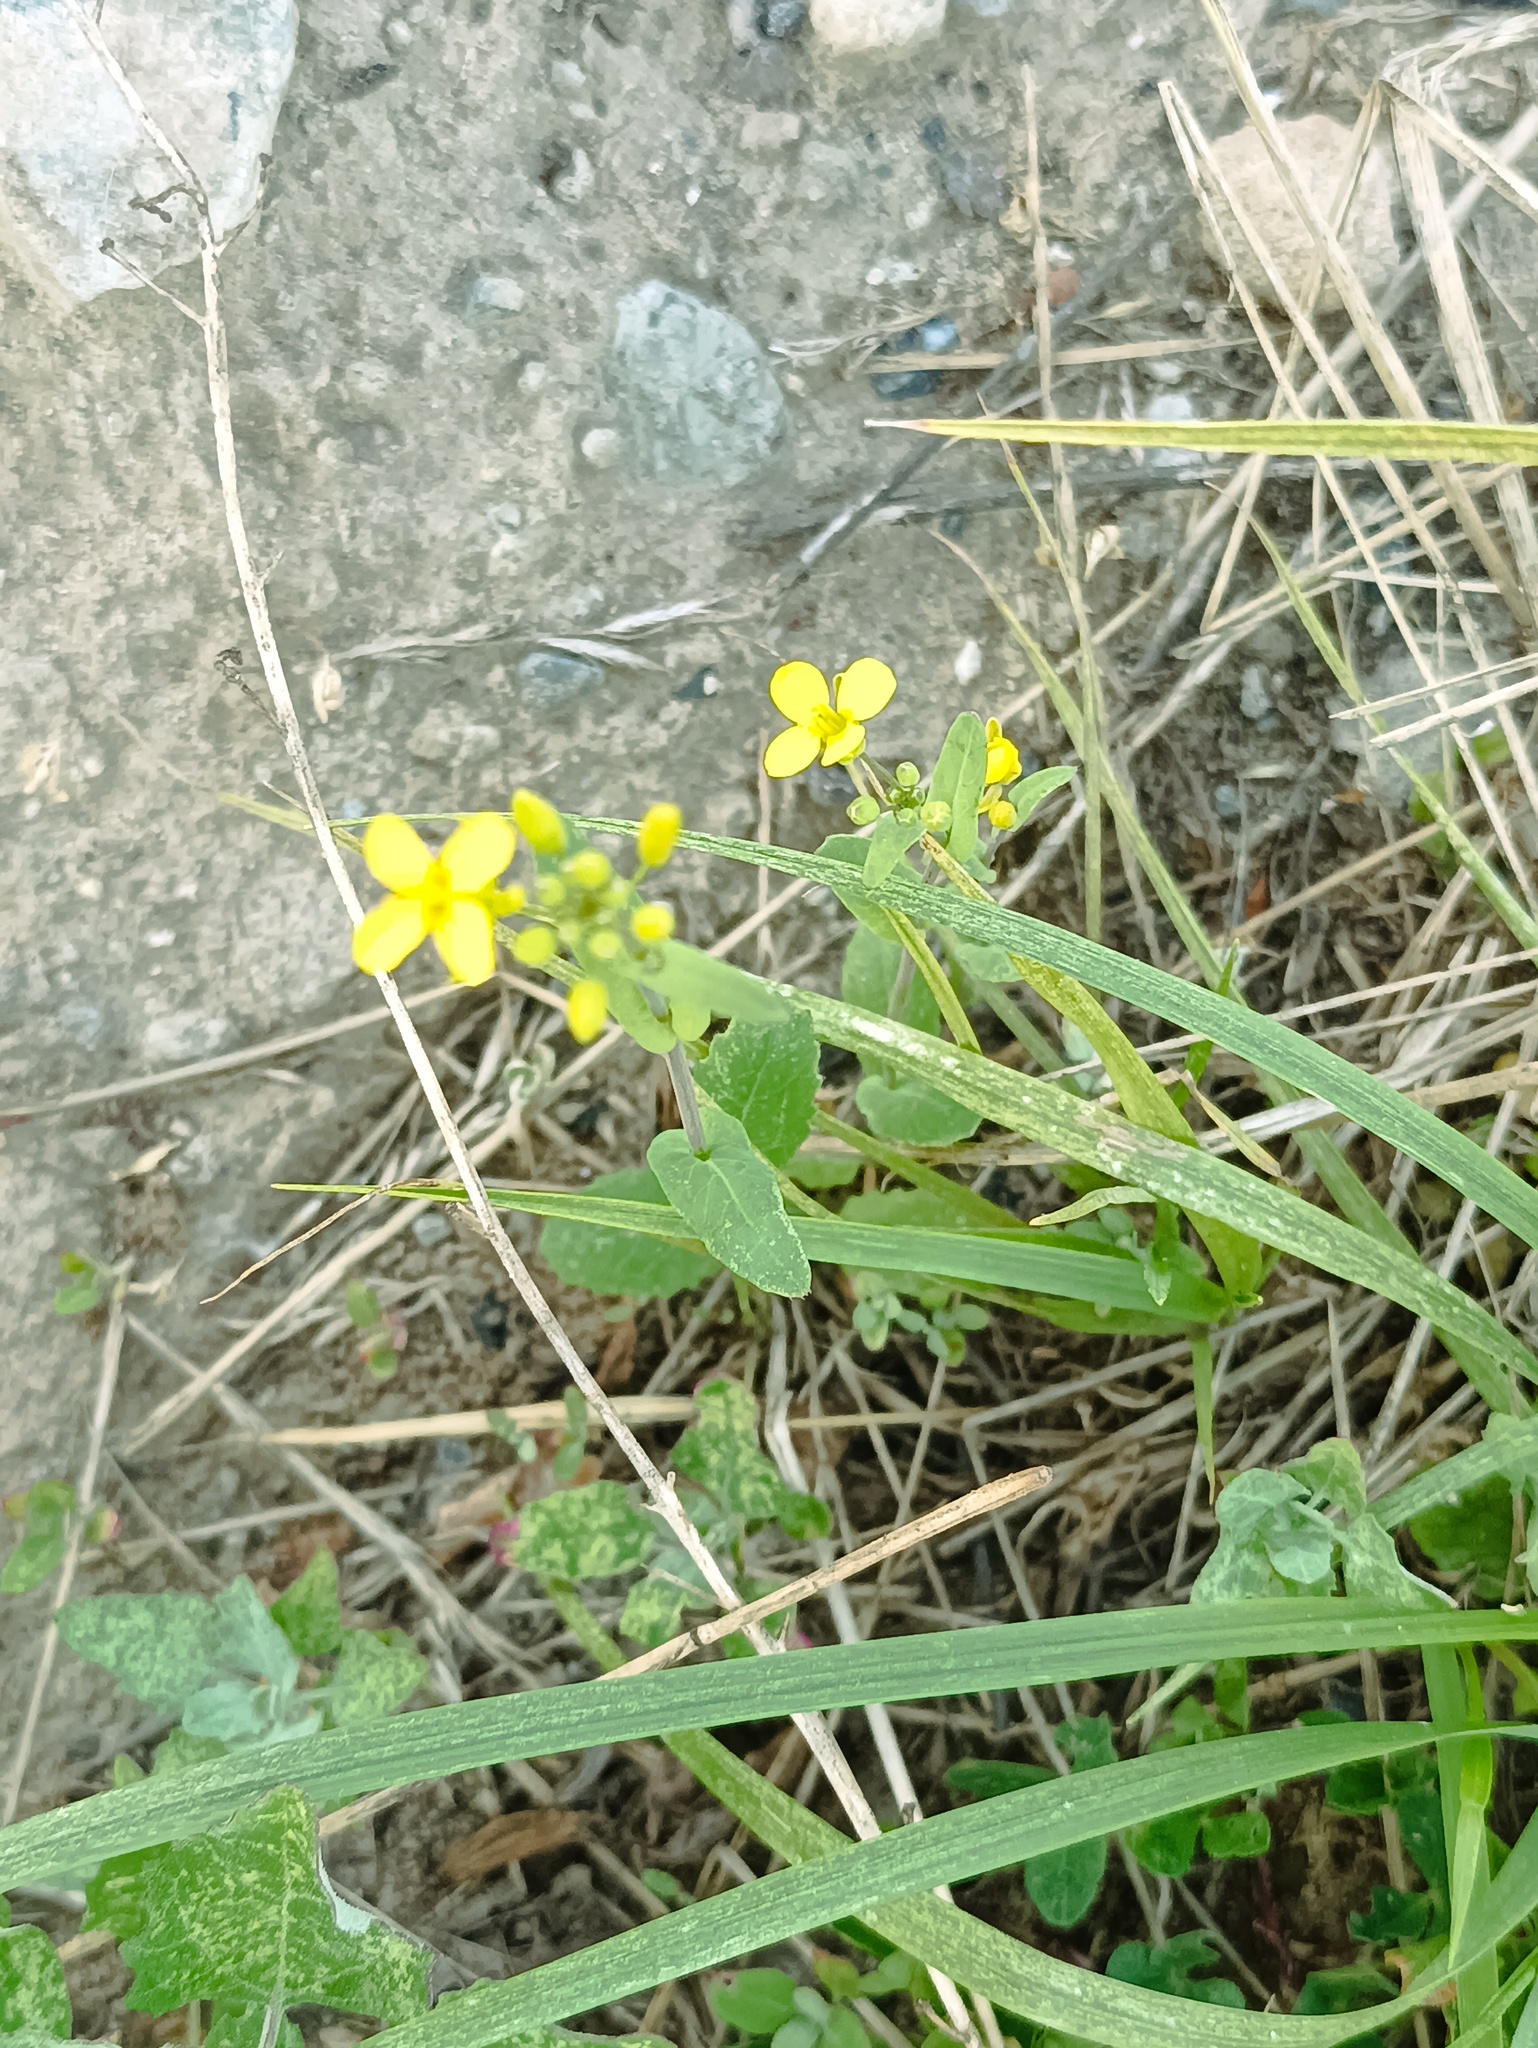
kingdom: Plantae
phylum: Tracheophyta
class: Magnoliopsida
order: Brassicales
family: Brassicaceae
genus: Brassica
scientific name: Brassica rapa
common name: Field mustard
